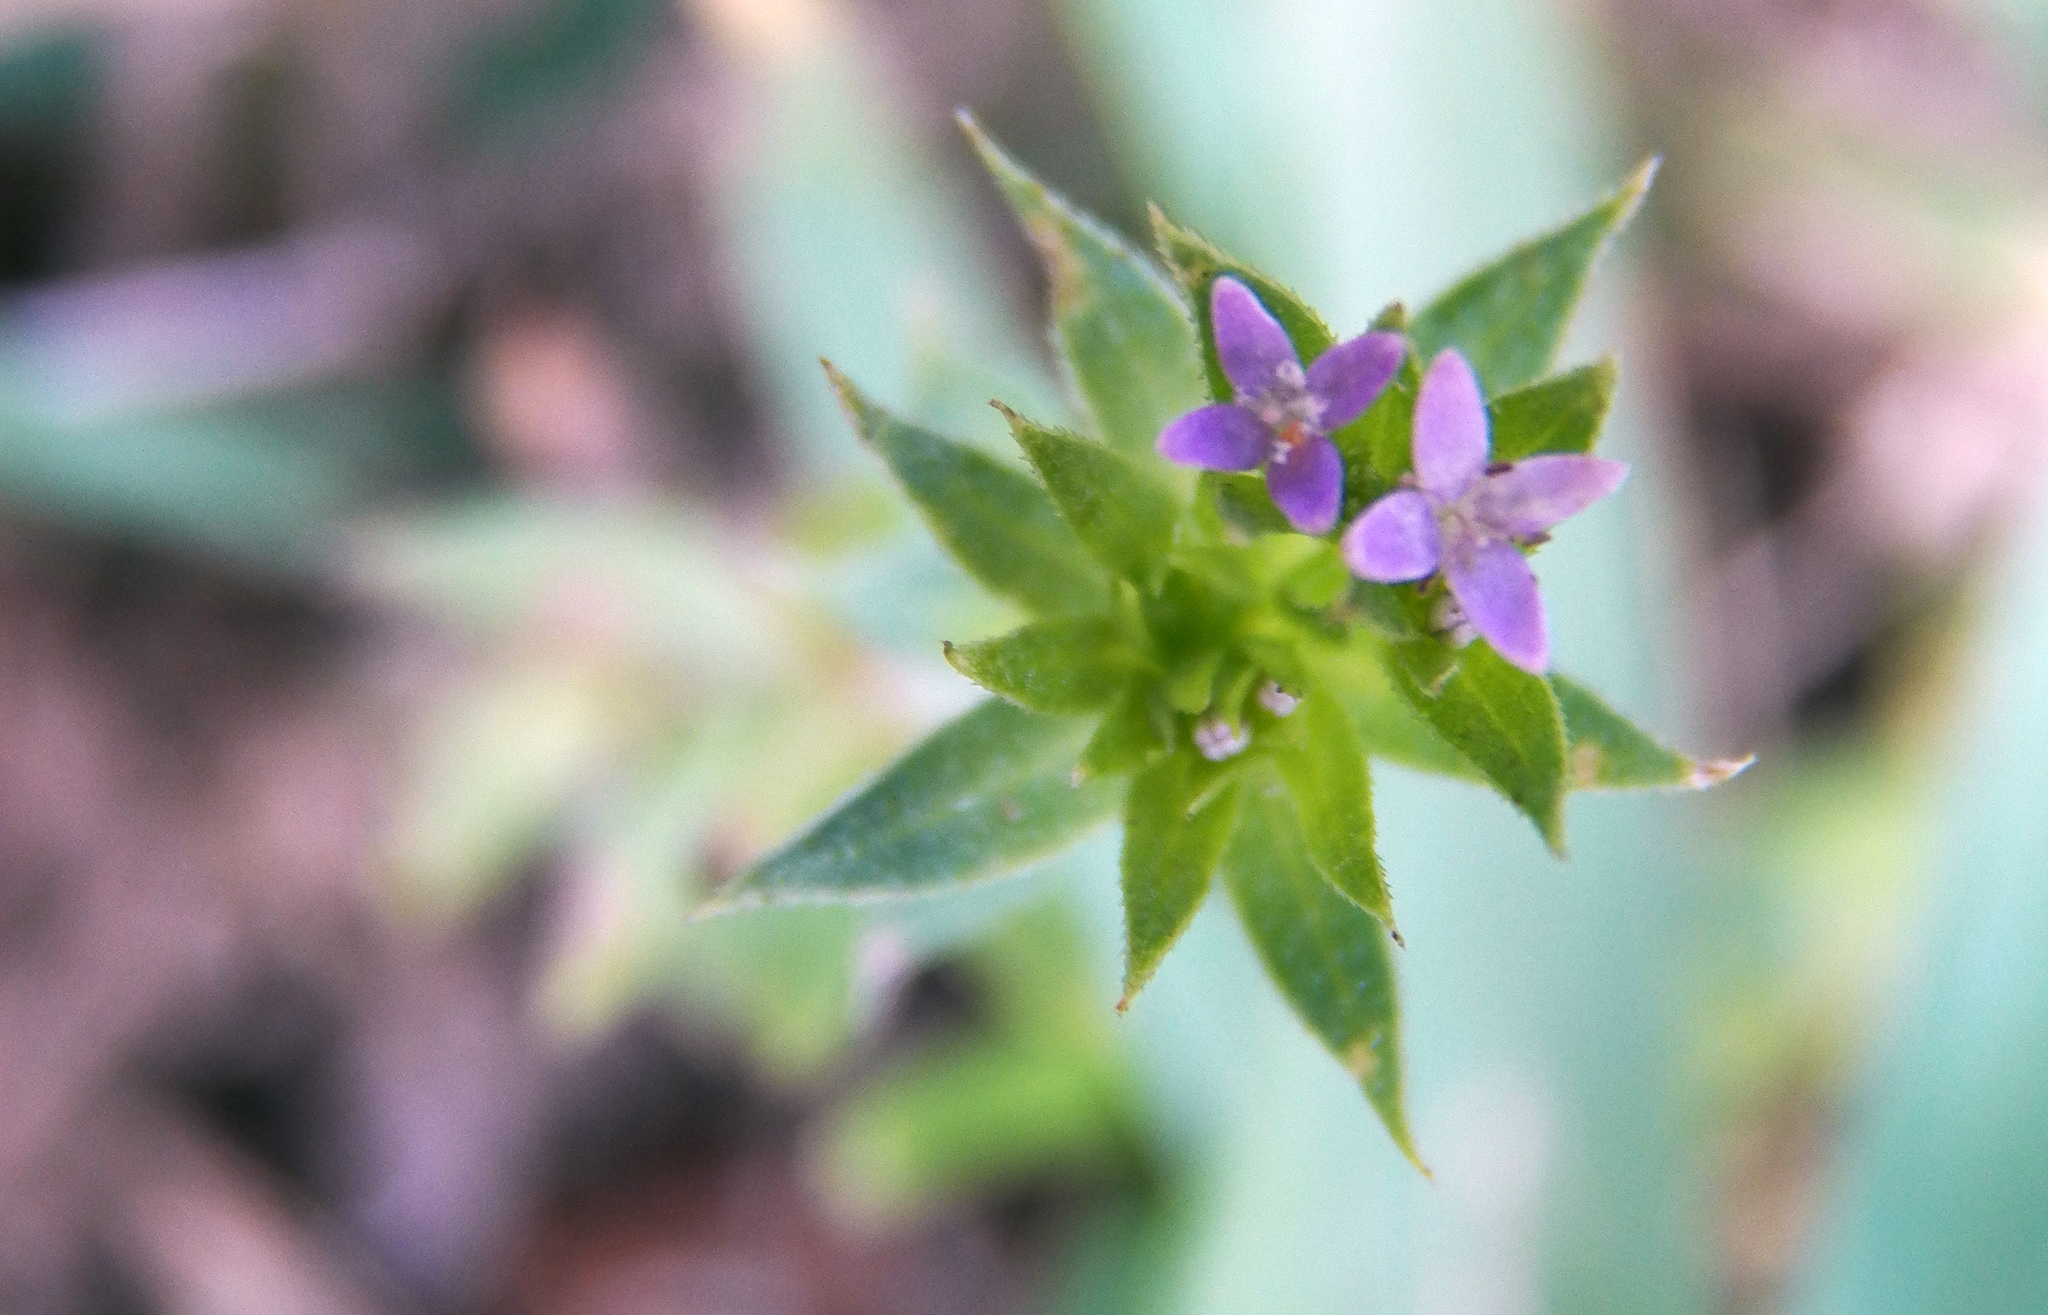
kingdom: Plantae
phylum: Tracheophyta
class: Magnoliopsida
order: Gentianales
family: Rubiaceae
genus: Sherardia
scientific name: Sherardia arvensis
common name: Field madder
